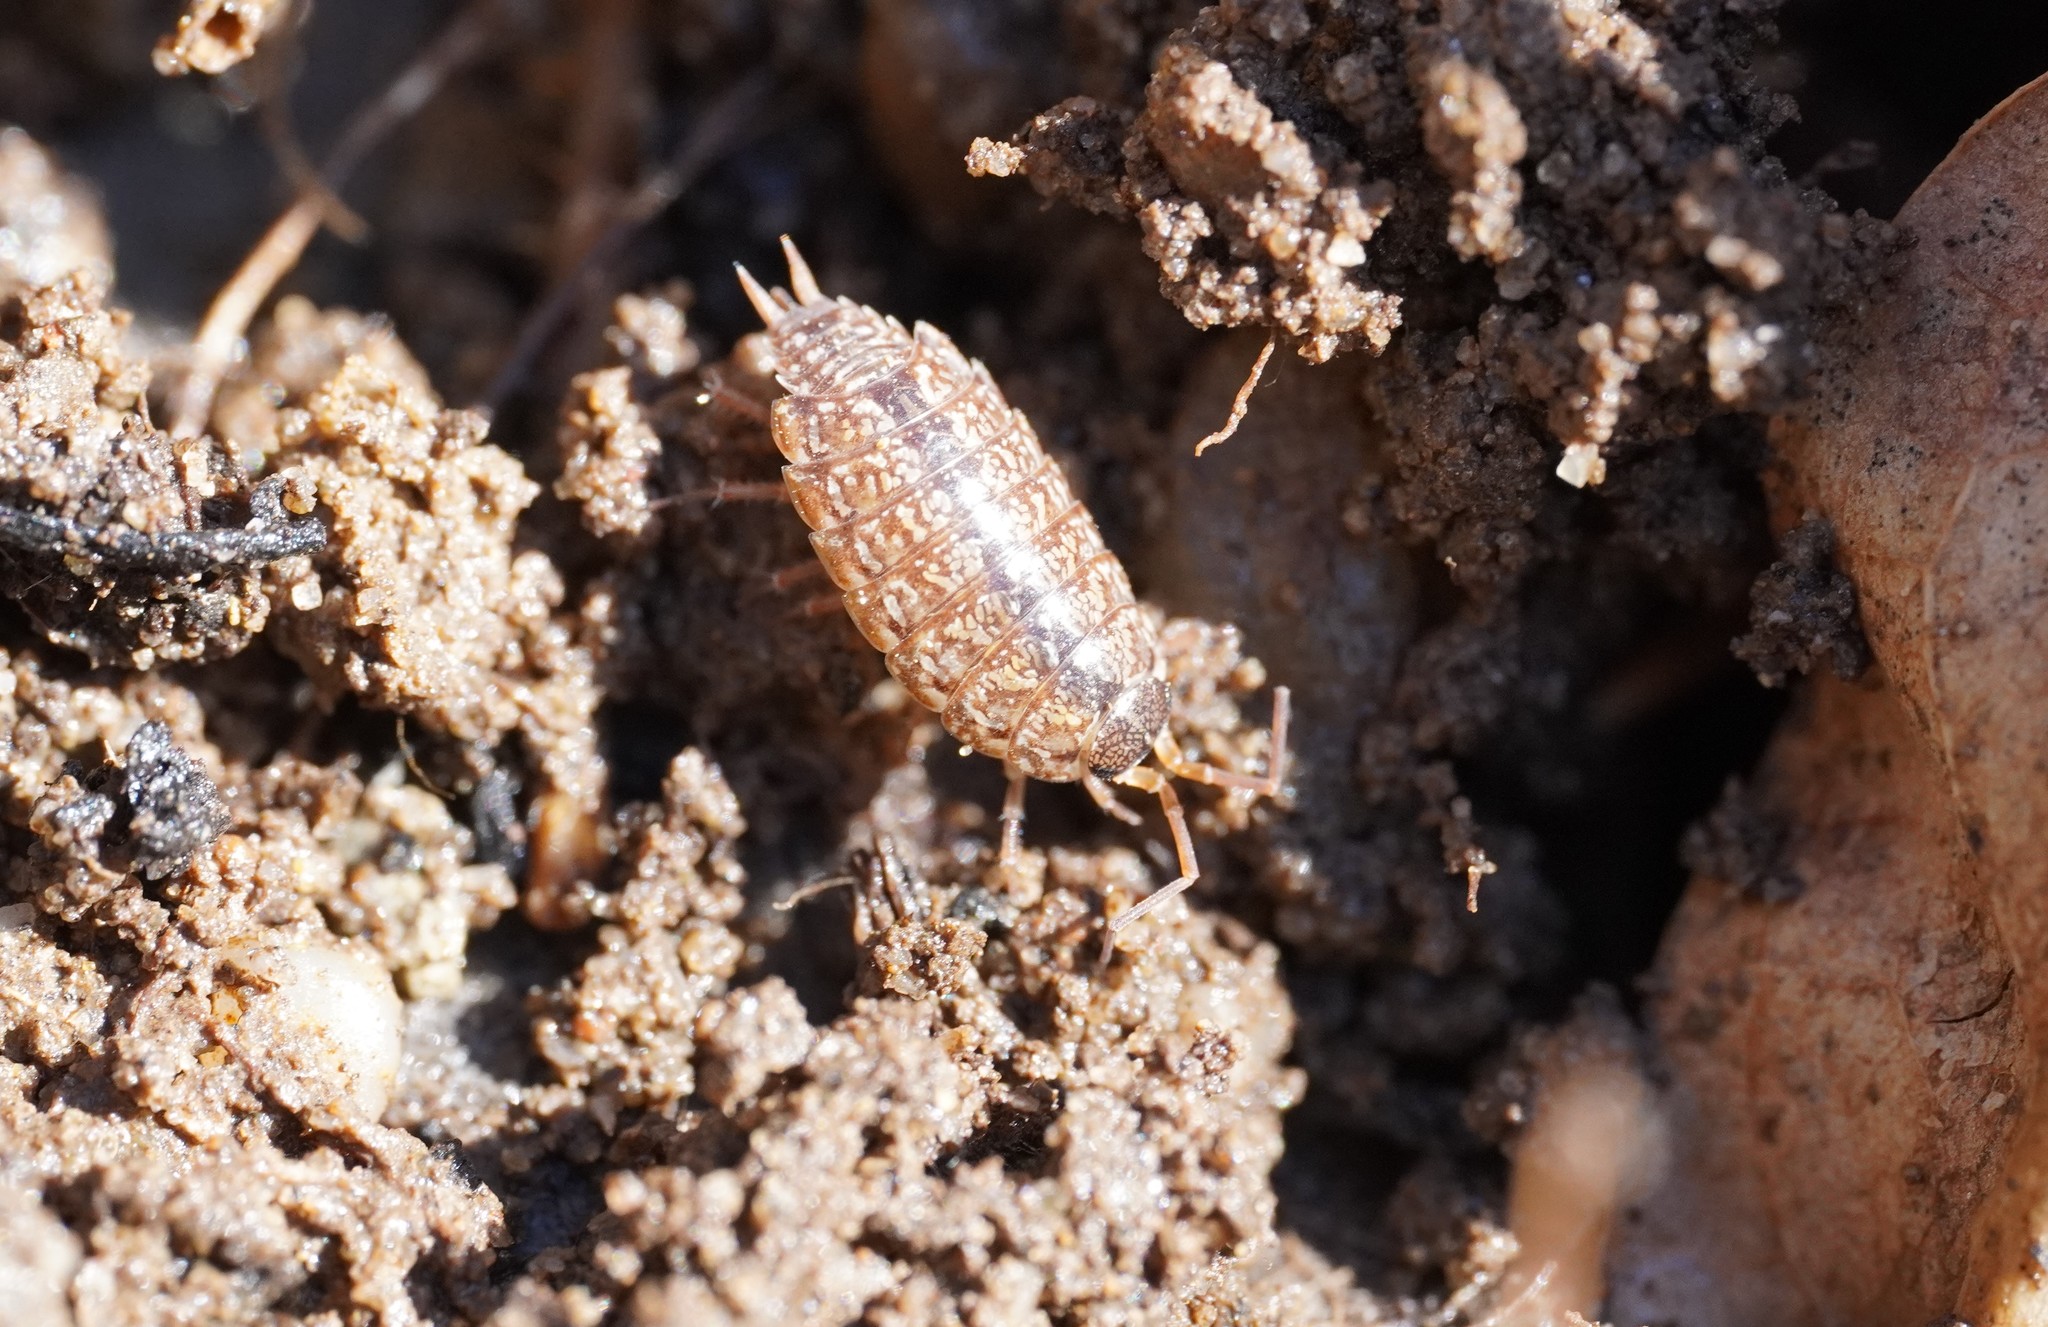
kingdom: Animalia
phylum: Arthropoda
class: Malacostraca
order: Isopoda
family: Philosciidae
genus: Philoscia
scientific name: Philoscia affinis
